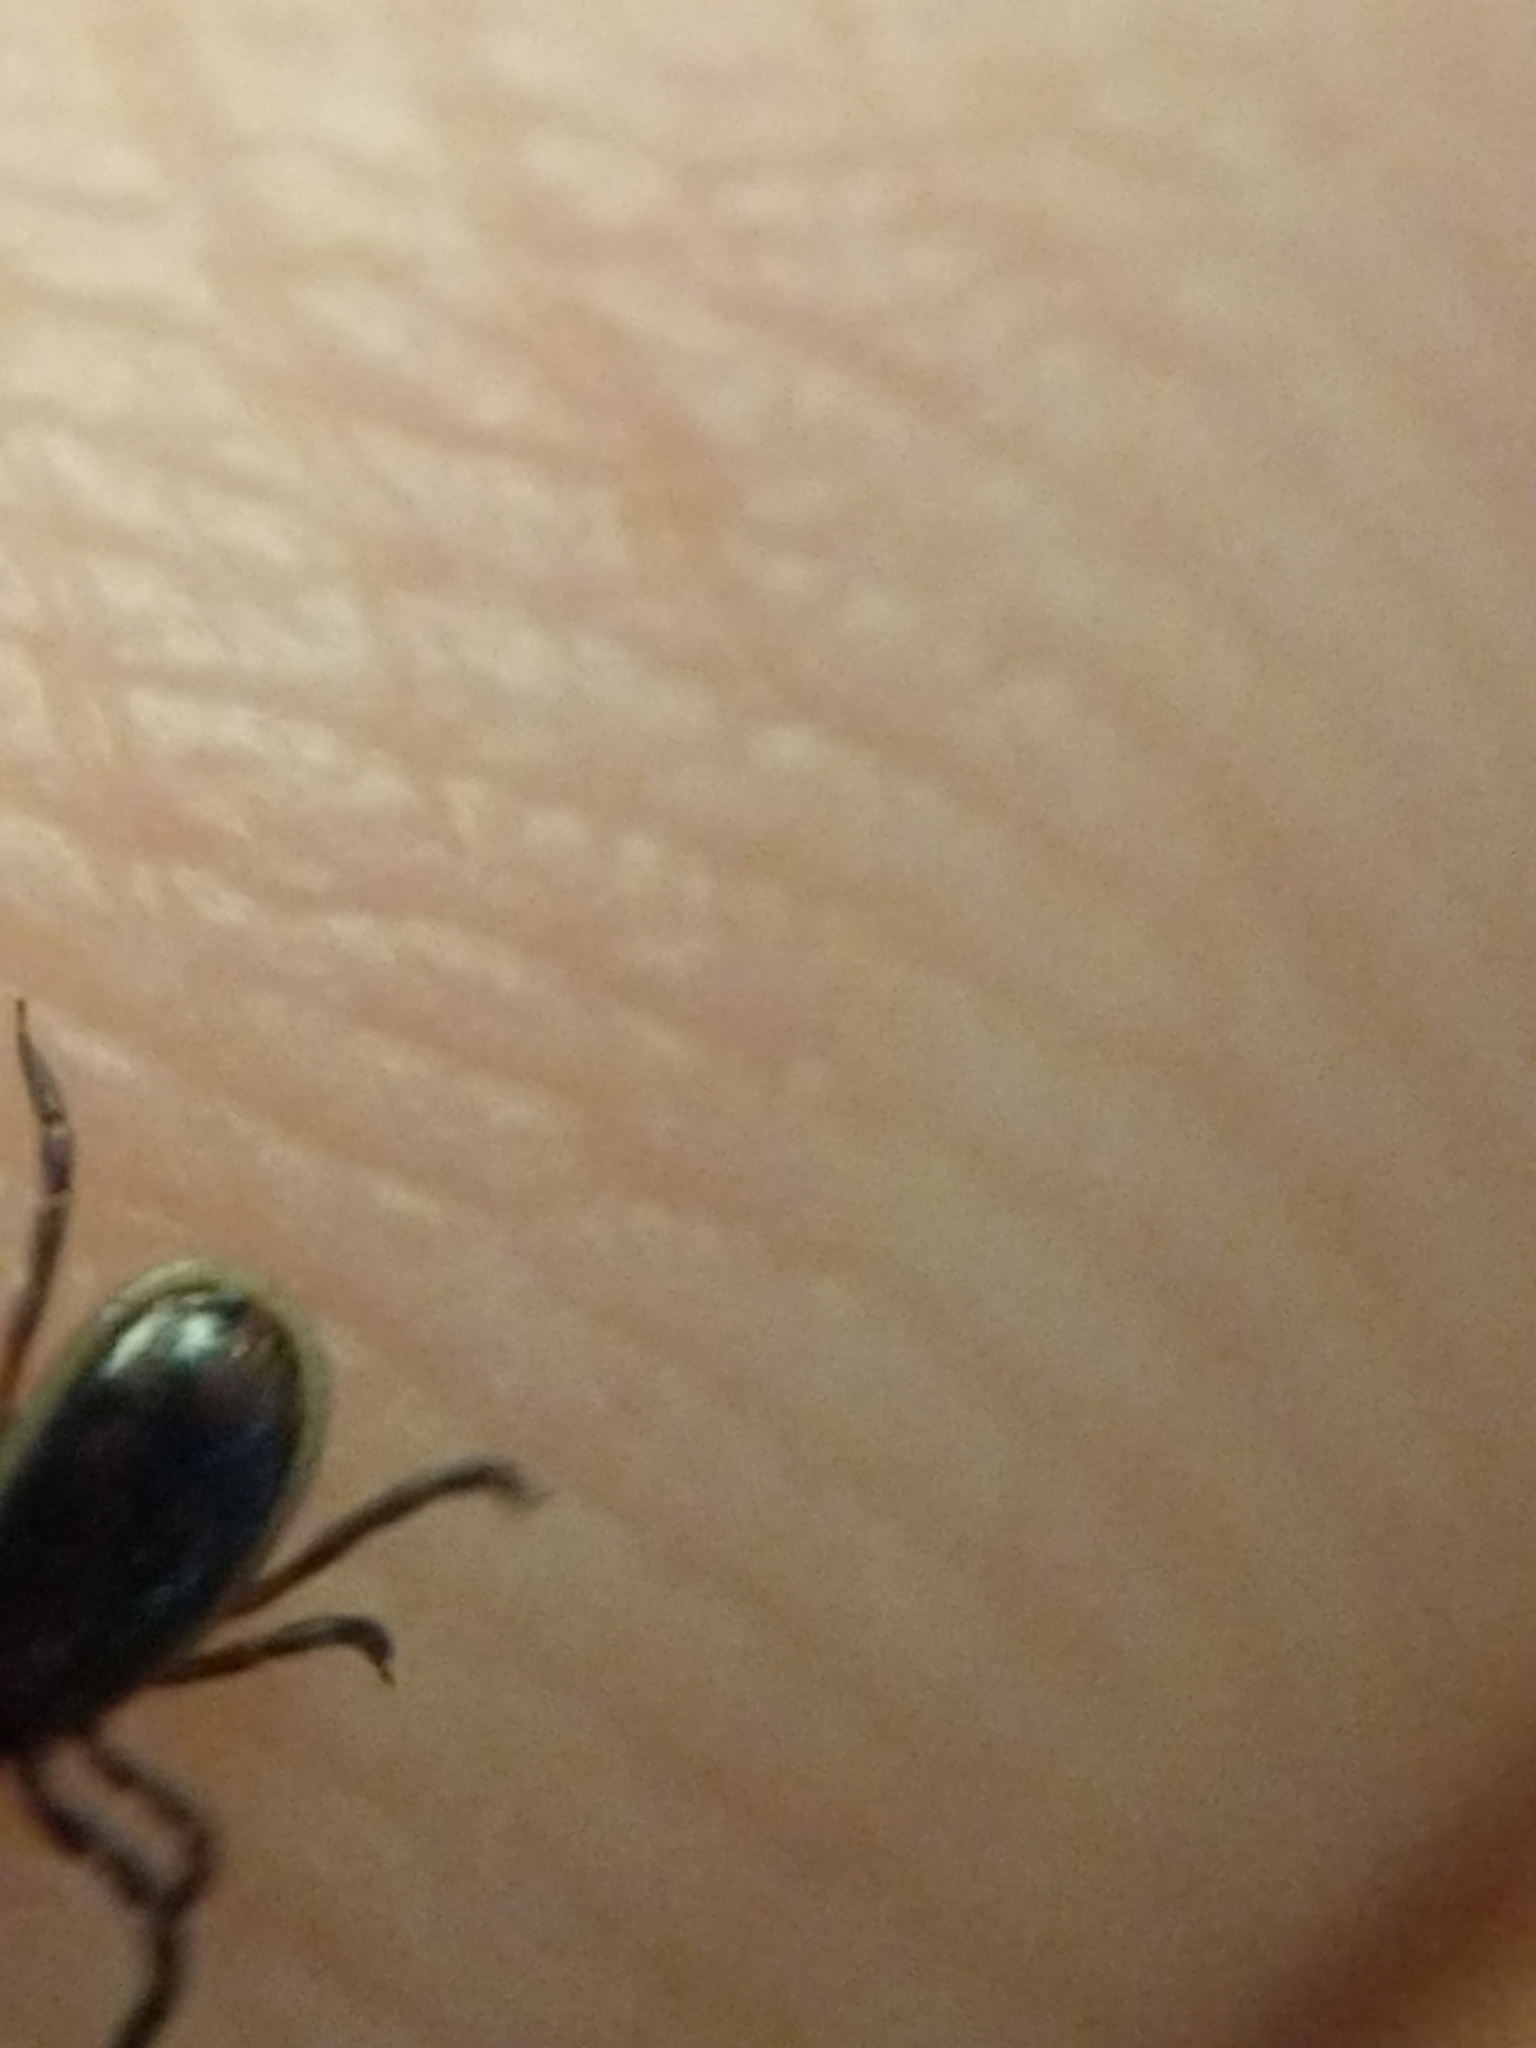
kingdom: Animalia
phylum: Arthropoda
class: Arachnida
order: Ixodida
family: Ixodidae
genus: Ixodes
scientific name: Ixodes scapularis
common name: Black legged tick
